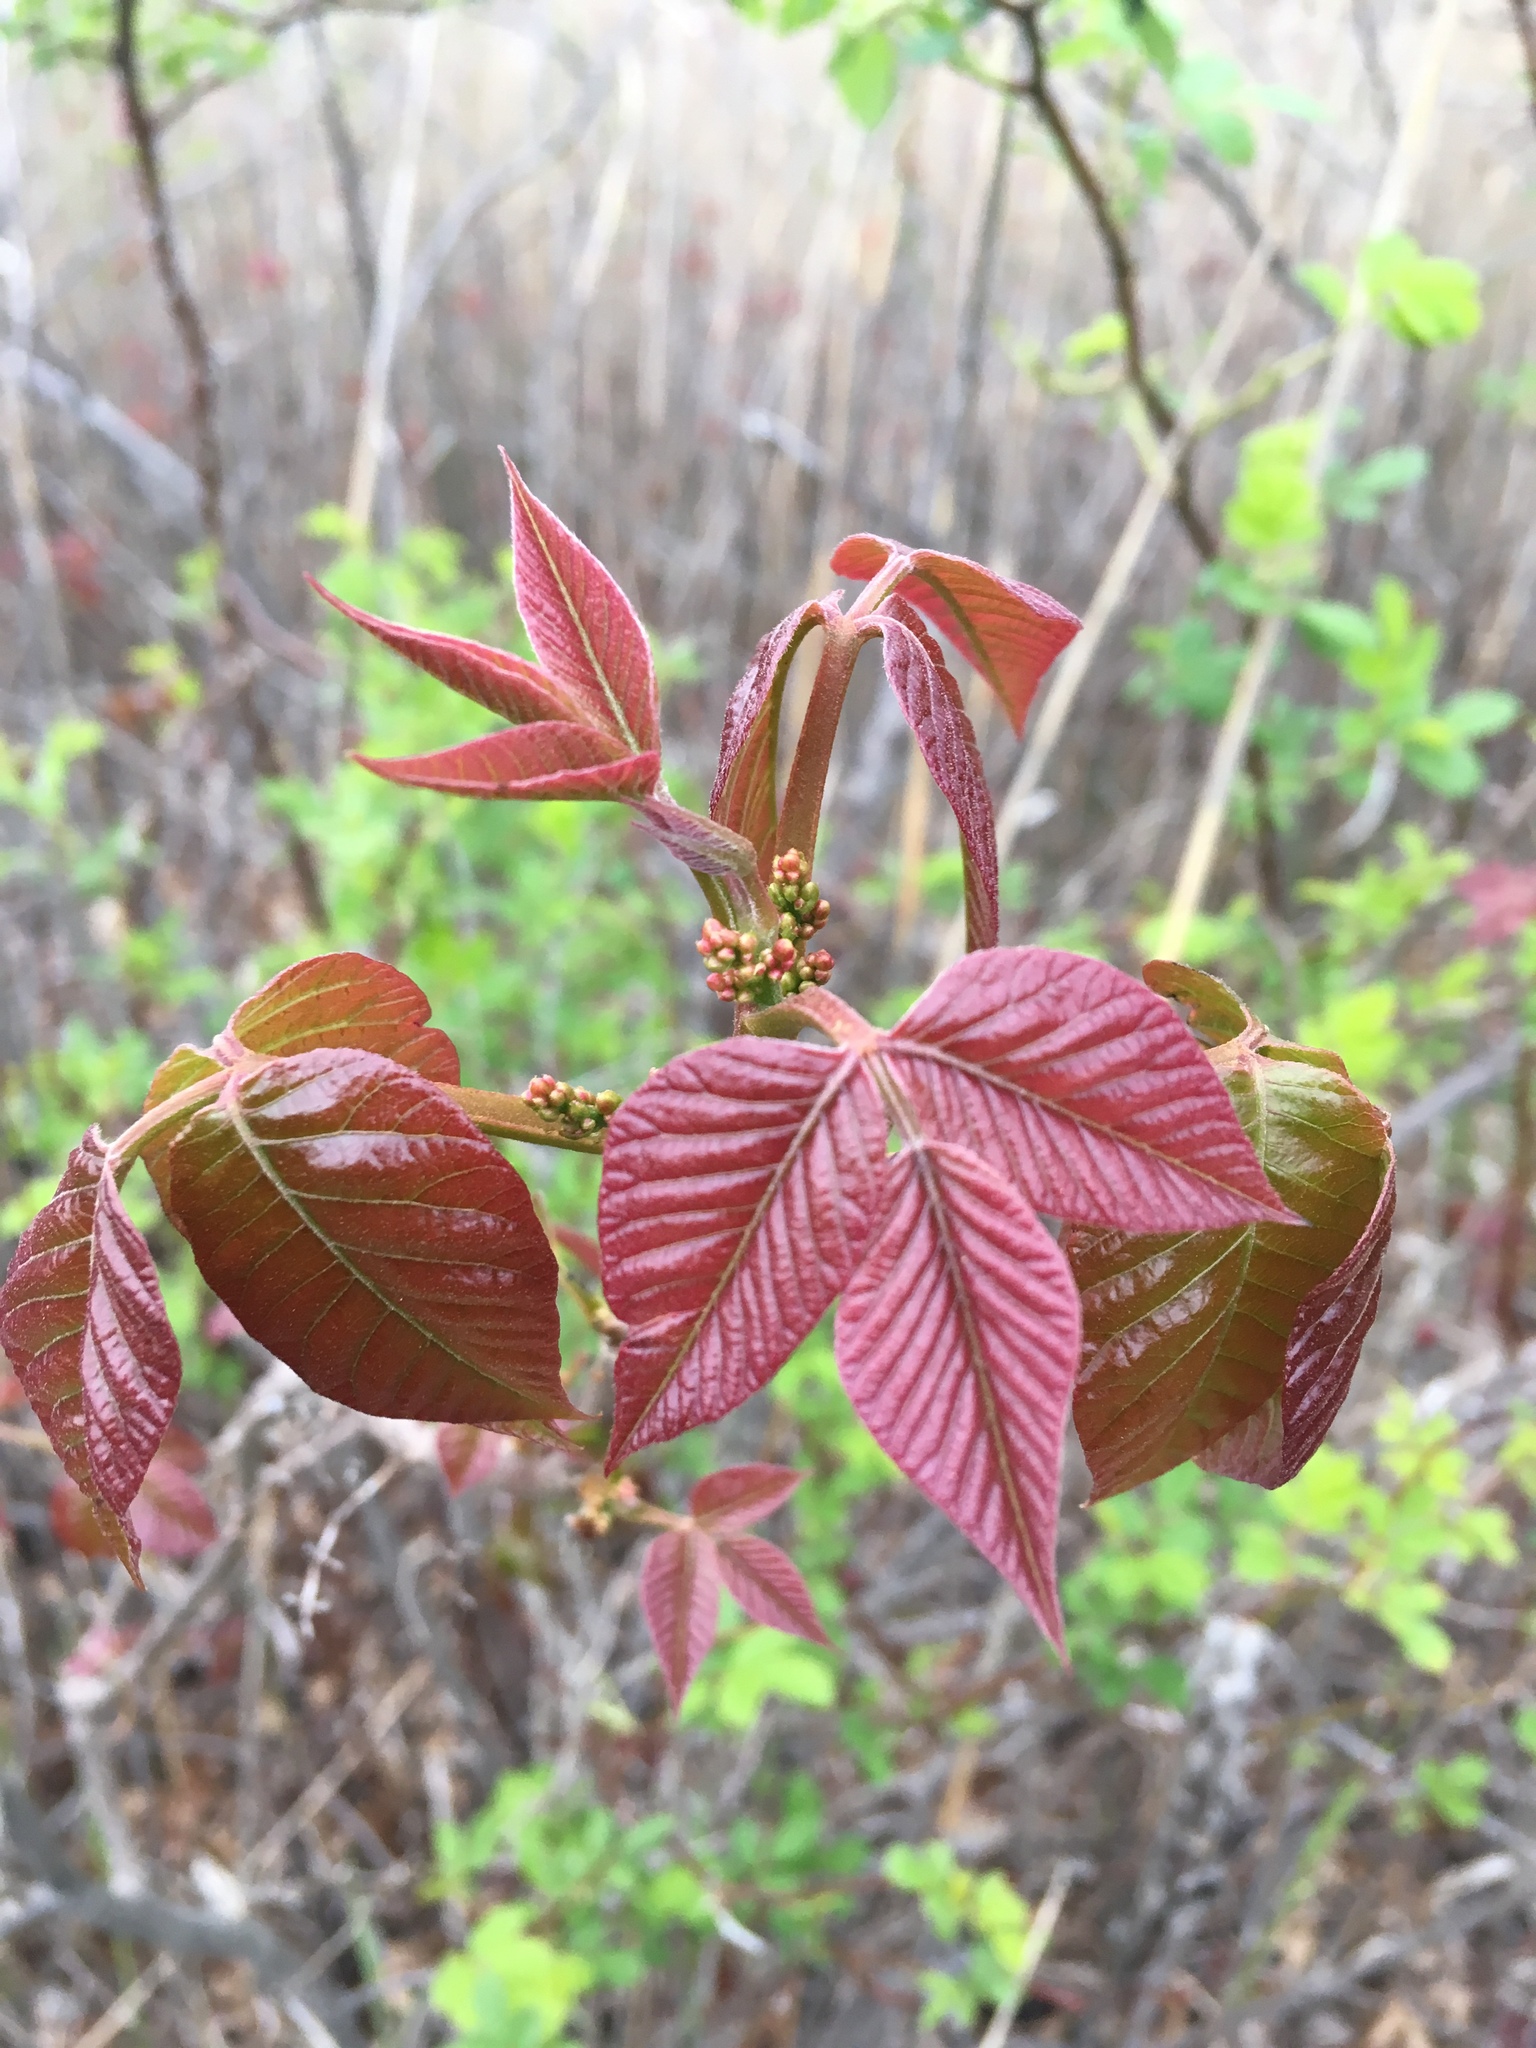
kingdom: Plantae
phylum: Tracheophyta
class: Magnoliopsida
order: Sapindales
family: Anacardiaceae
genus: Toxicodendron
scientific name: Toxicodendron radicans
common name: Poison ivy
